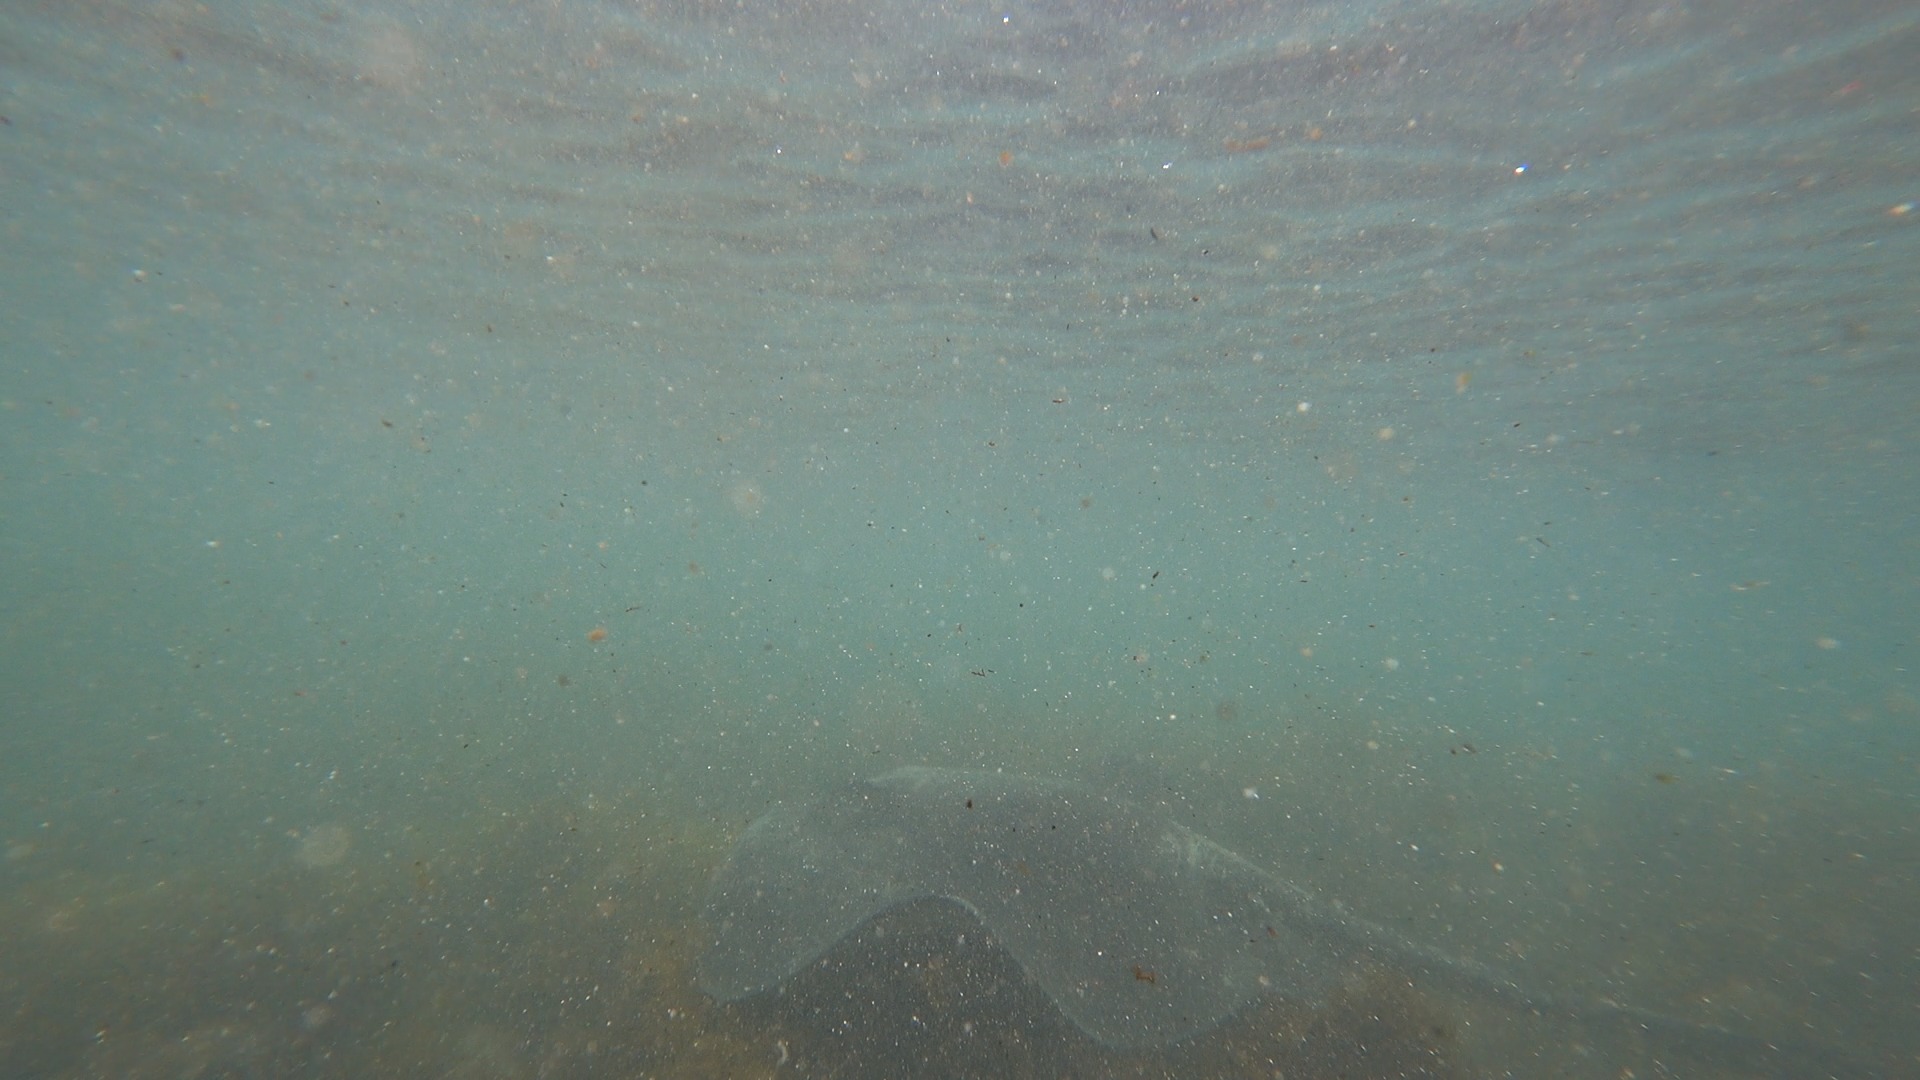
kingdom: Animalia
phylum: Chordata
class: Elasmobranchii
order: Myliobatiformes
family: Dasyatidae
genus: Bathytoshia
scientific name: Bathytoshia brevicaudata
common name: Short-tail stingray
